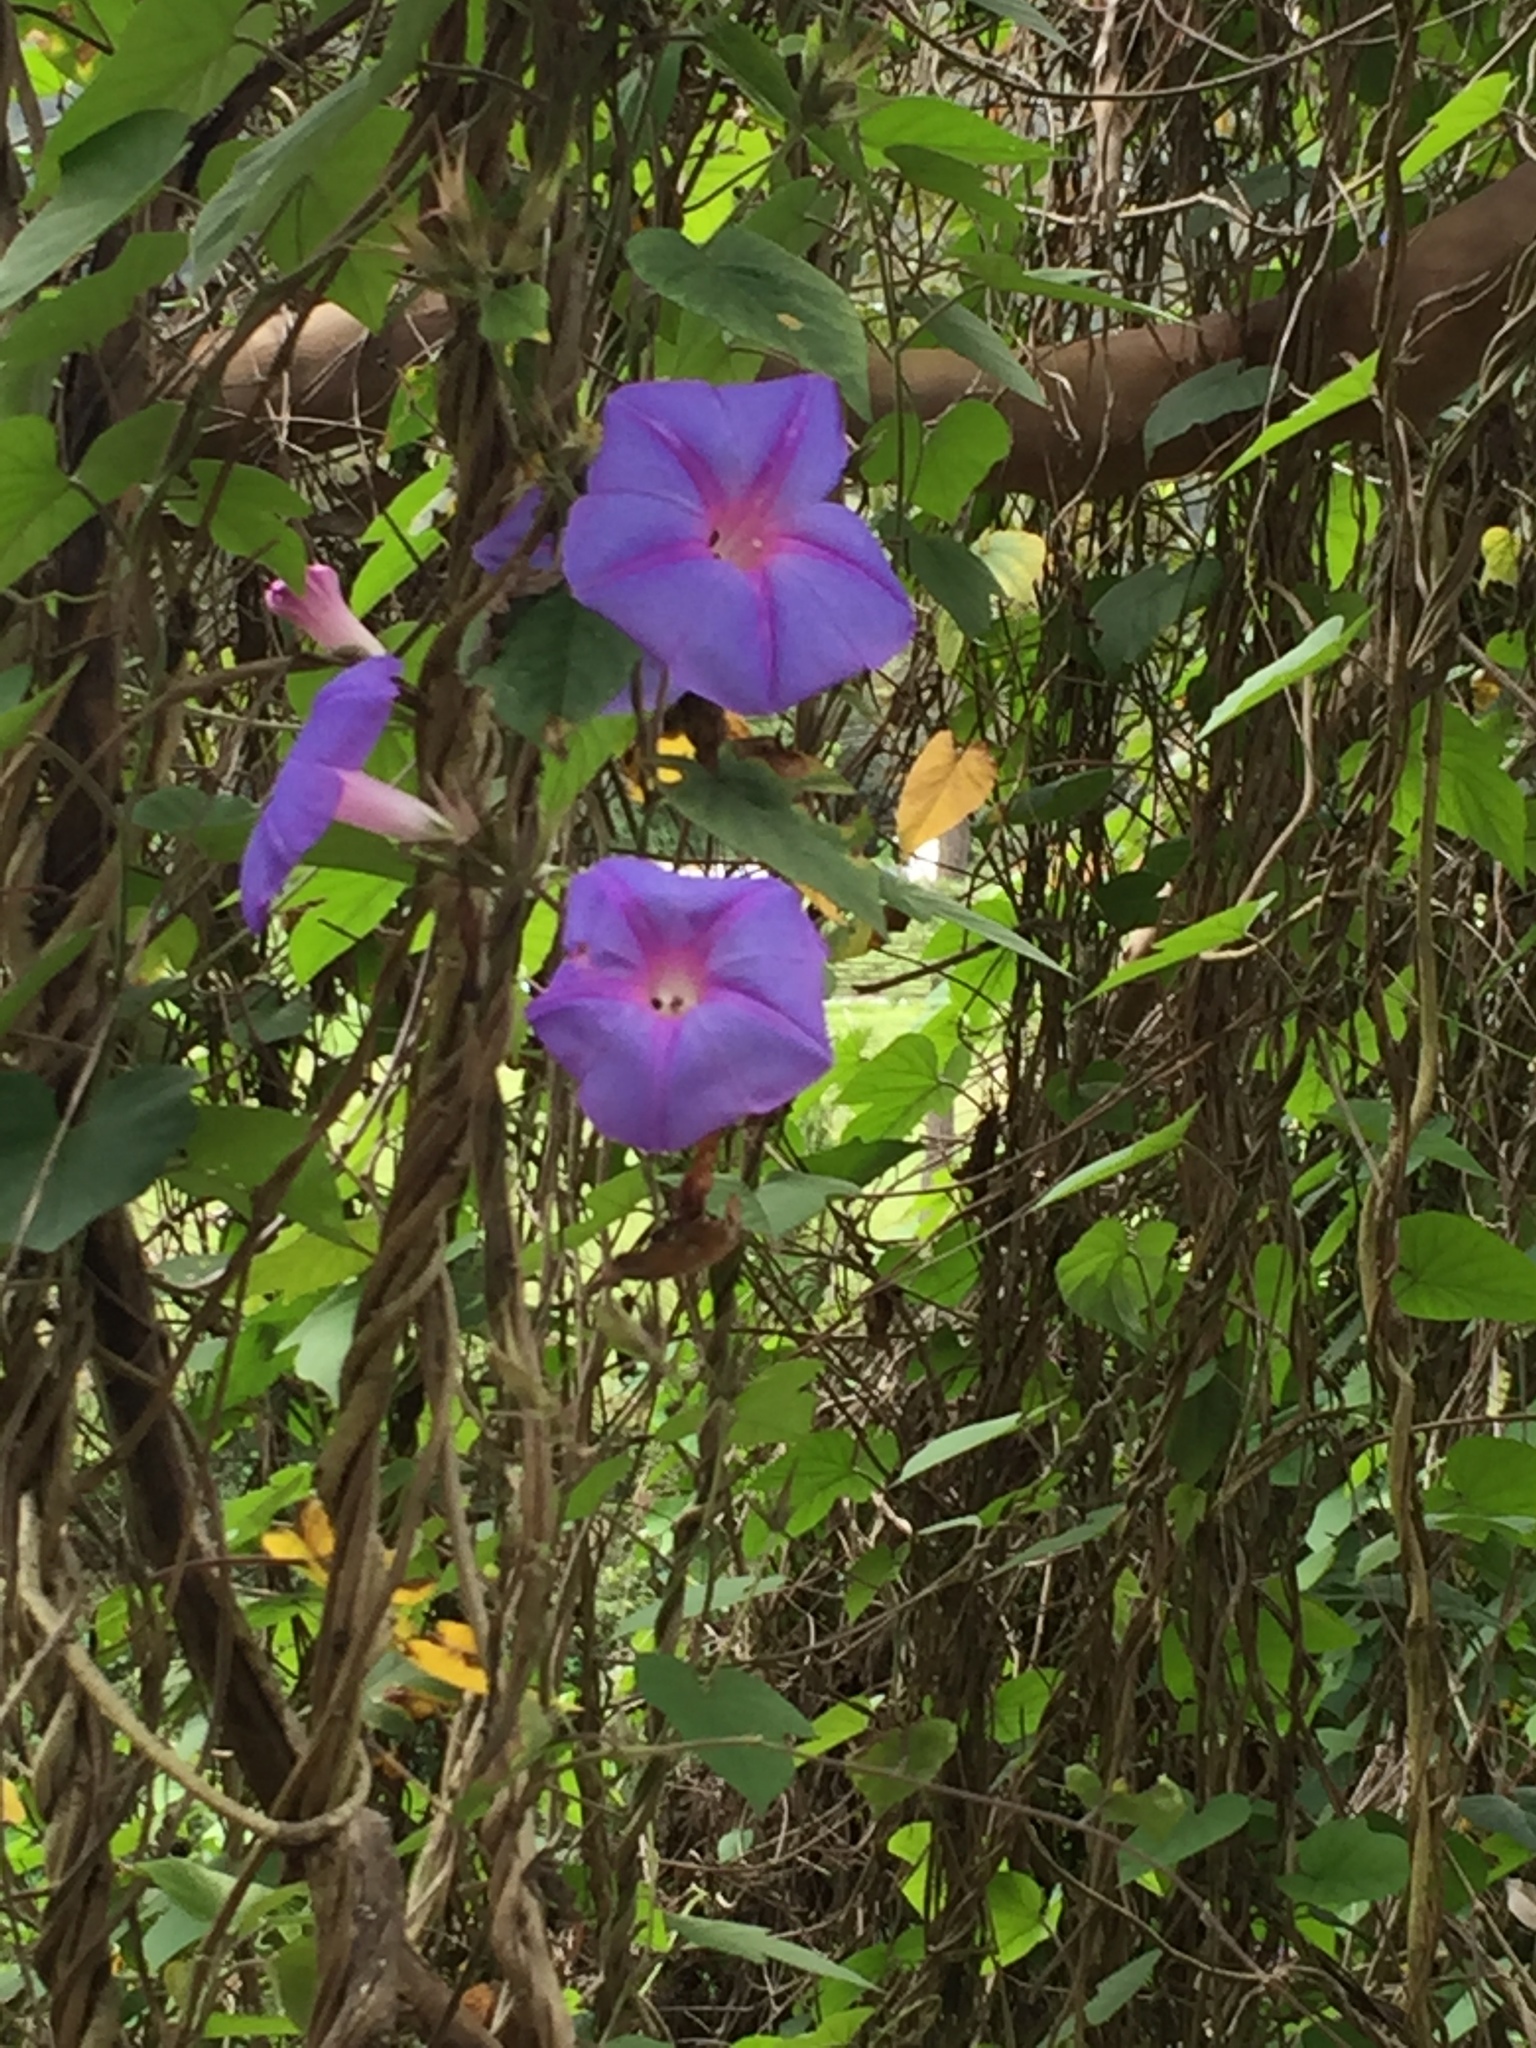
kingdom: Plantae
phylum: Tracheophyta
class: Magnoliopsida
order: Solanales
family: Convolvulaceae
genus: Ipomoea
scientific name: Ipomoea indica
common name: Blue dawnflower
